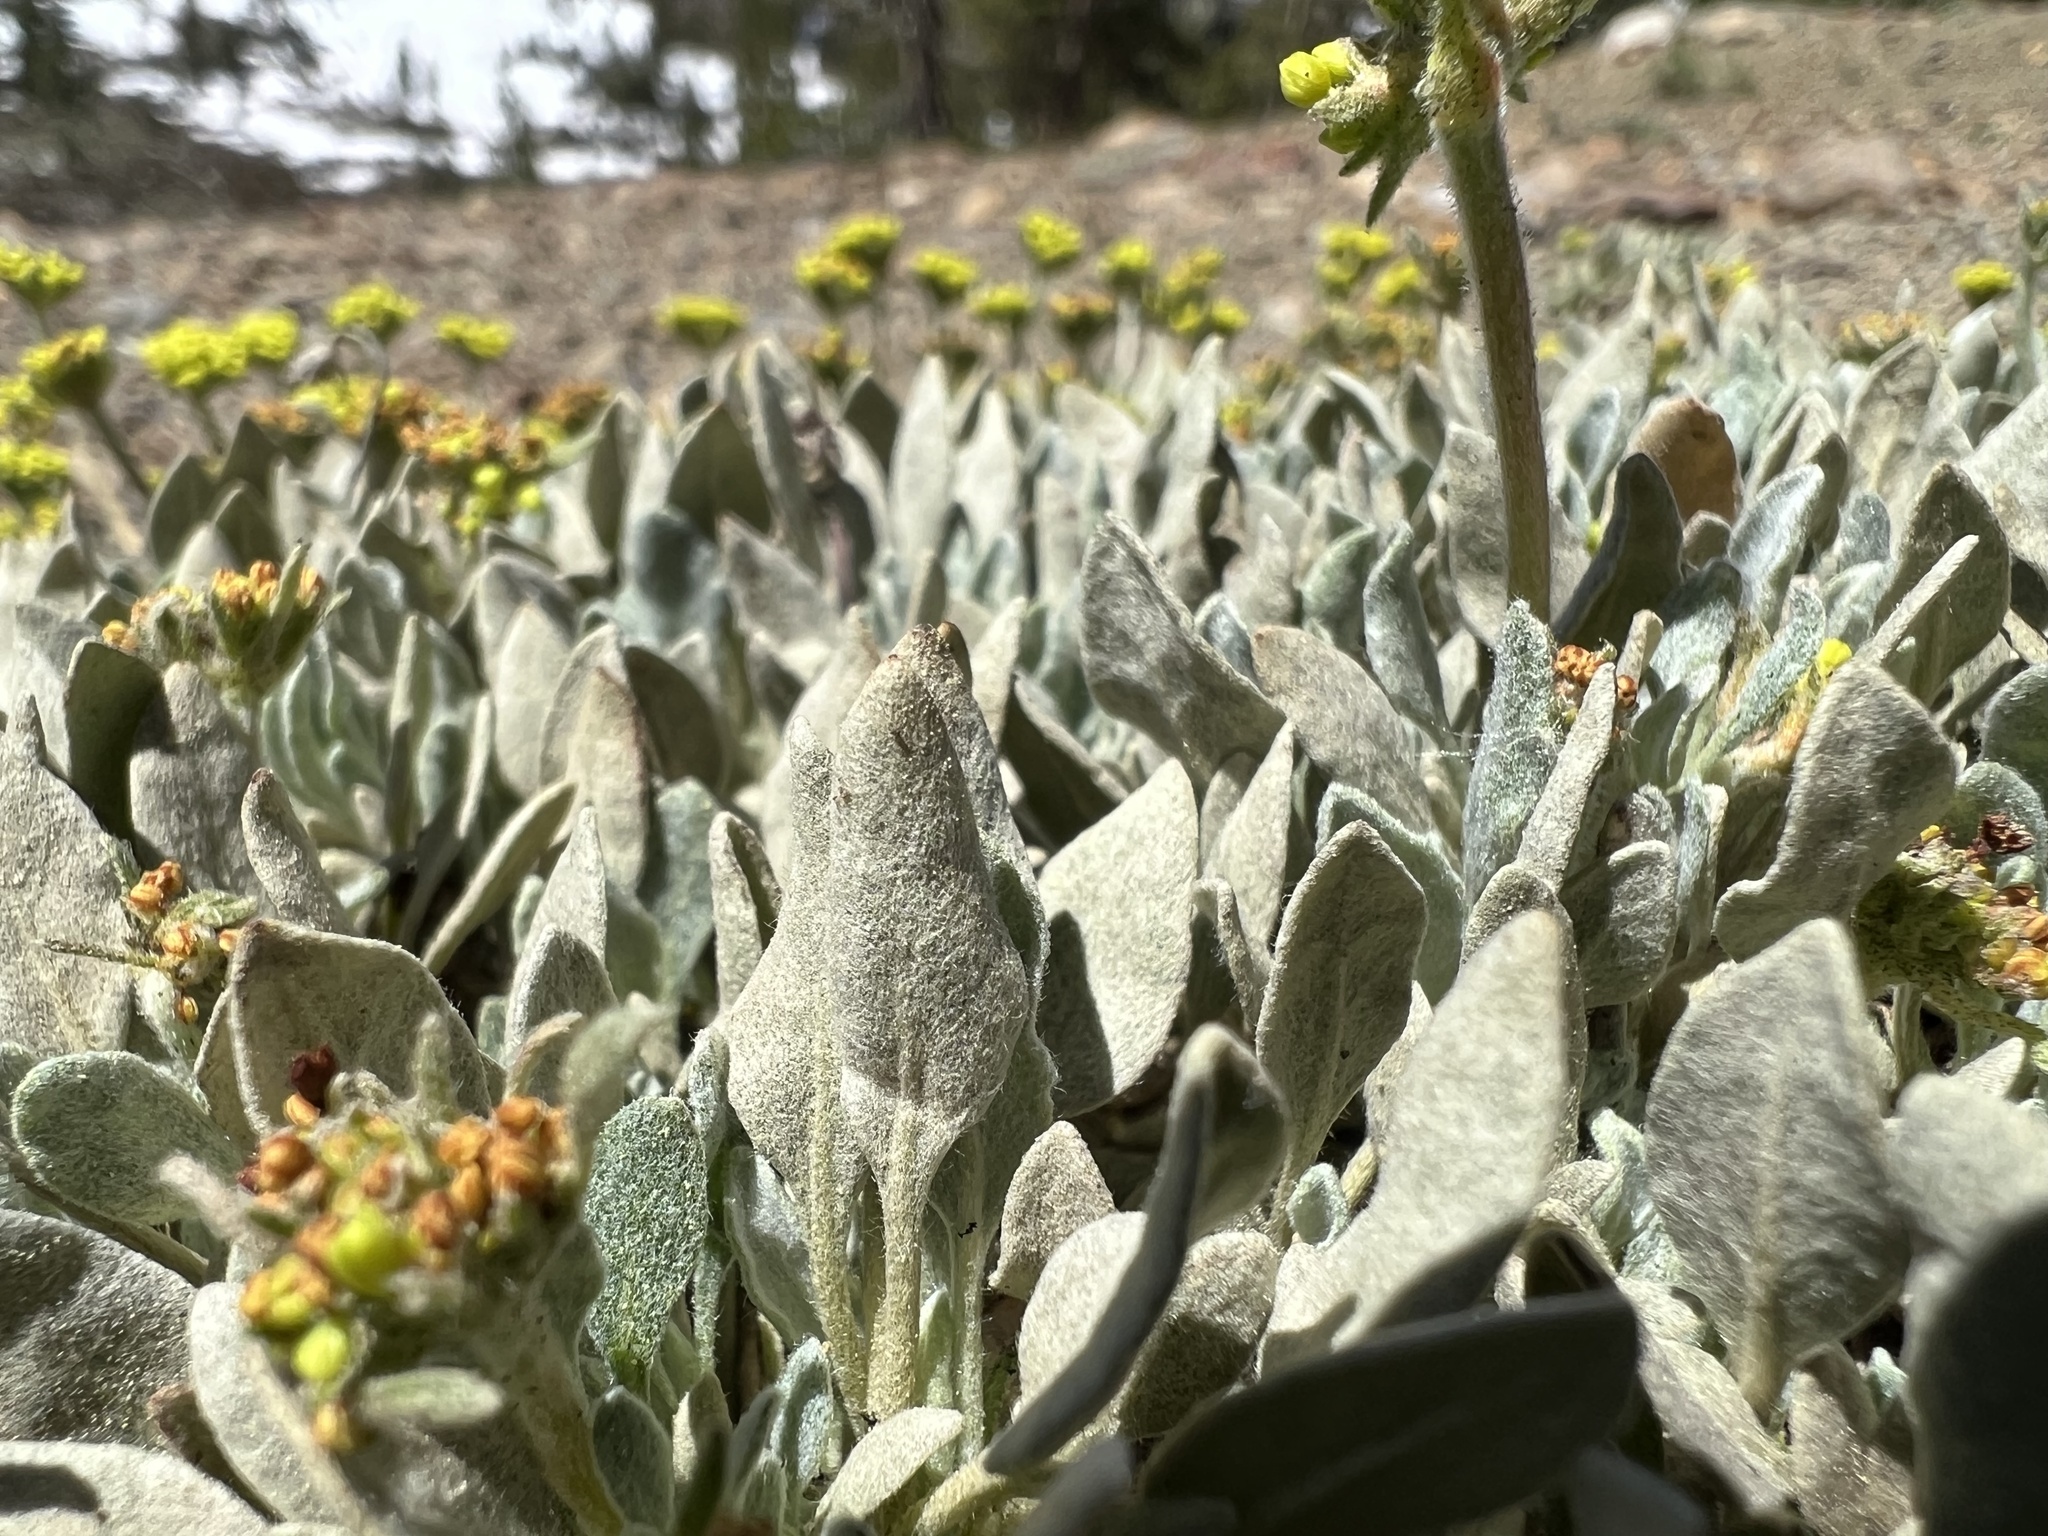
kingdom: Plantae
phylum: Tracheophyta
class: Magnoliopsida
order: Caryophyllales
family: Polygonaceae
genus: Eriogonum
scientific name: Eriogonum incanum
